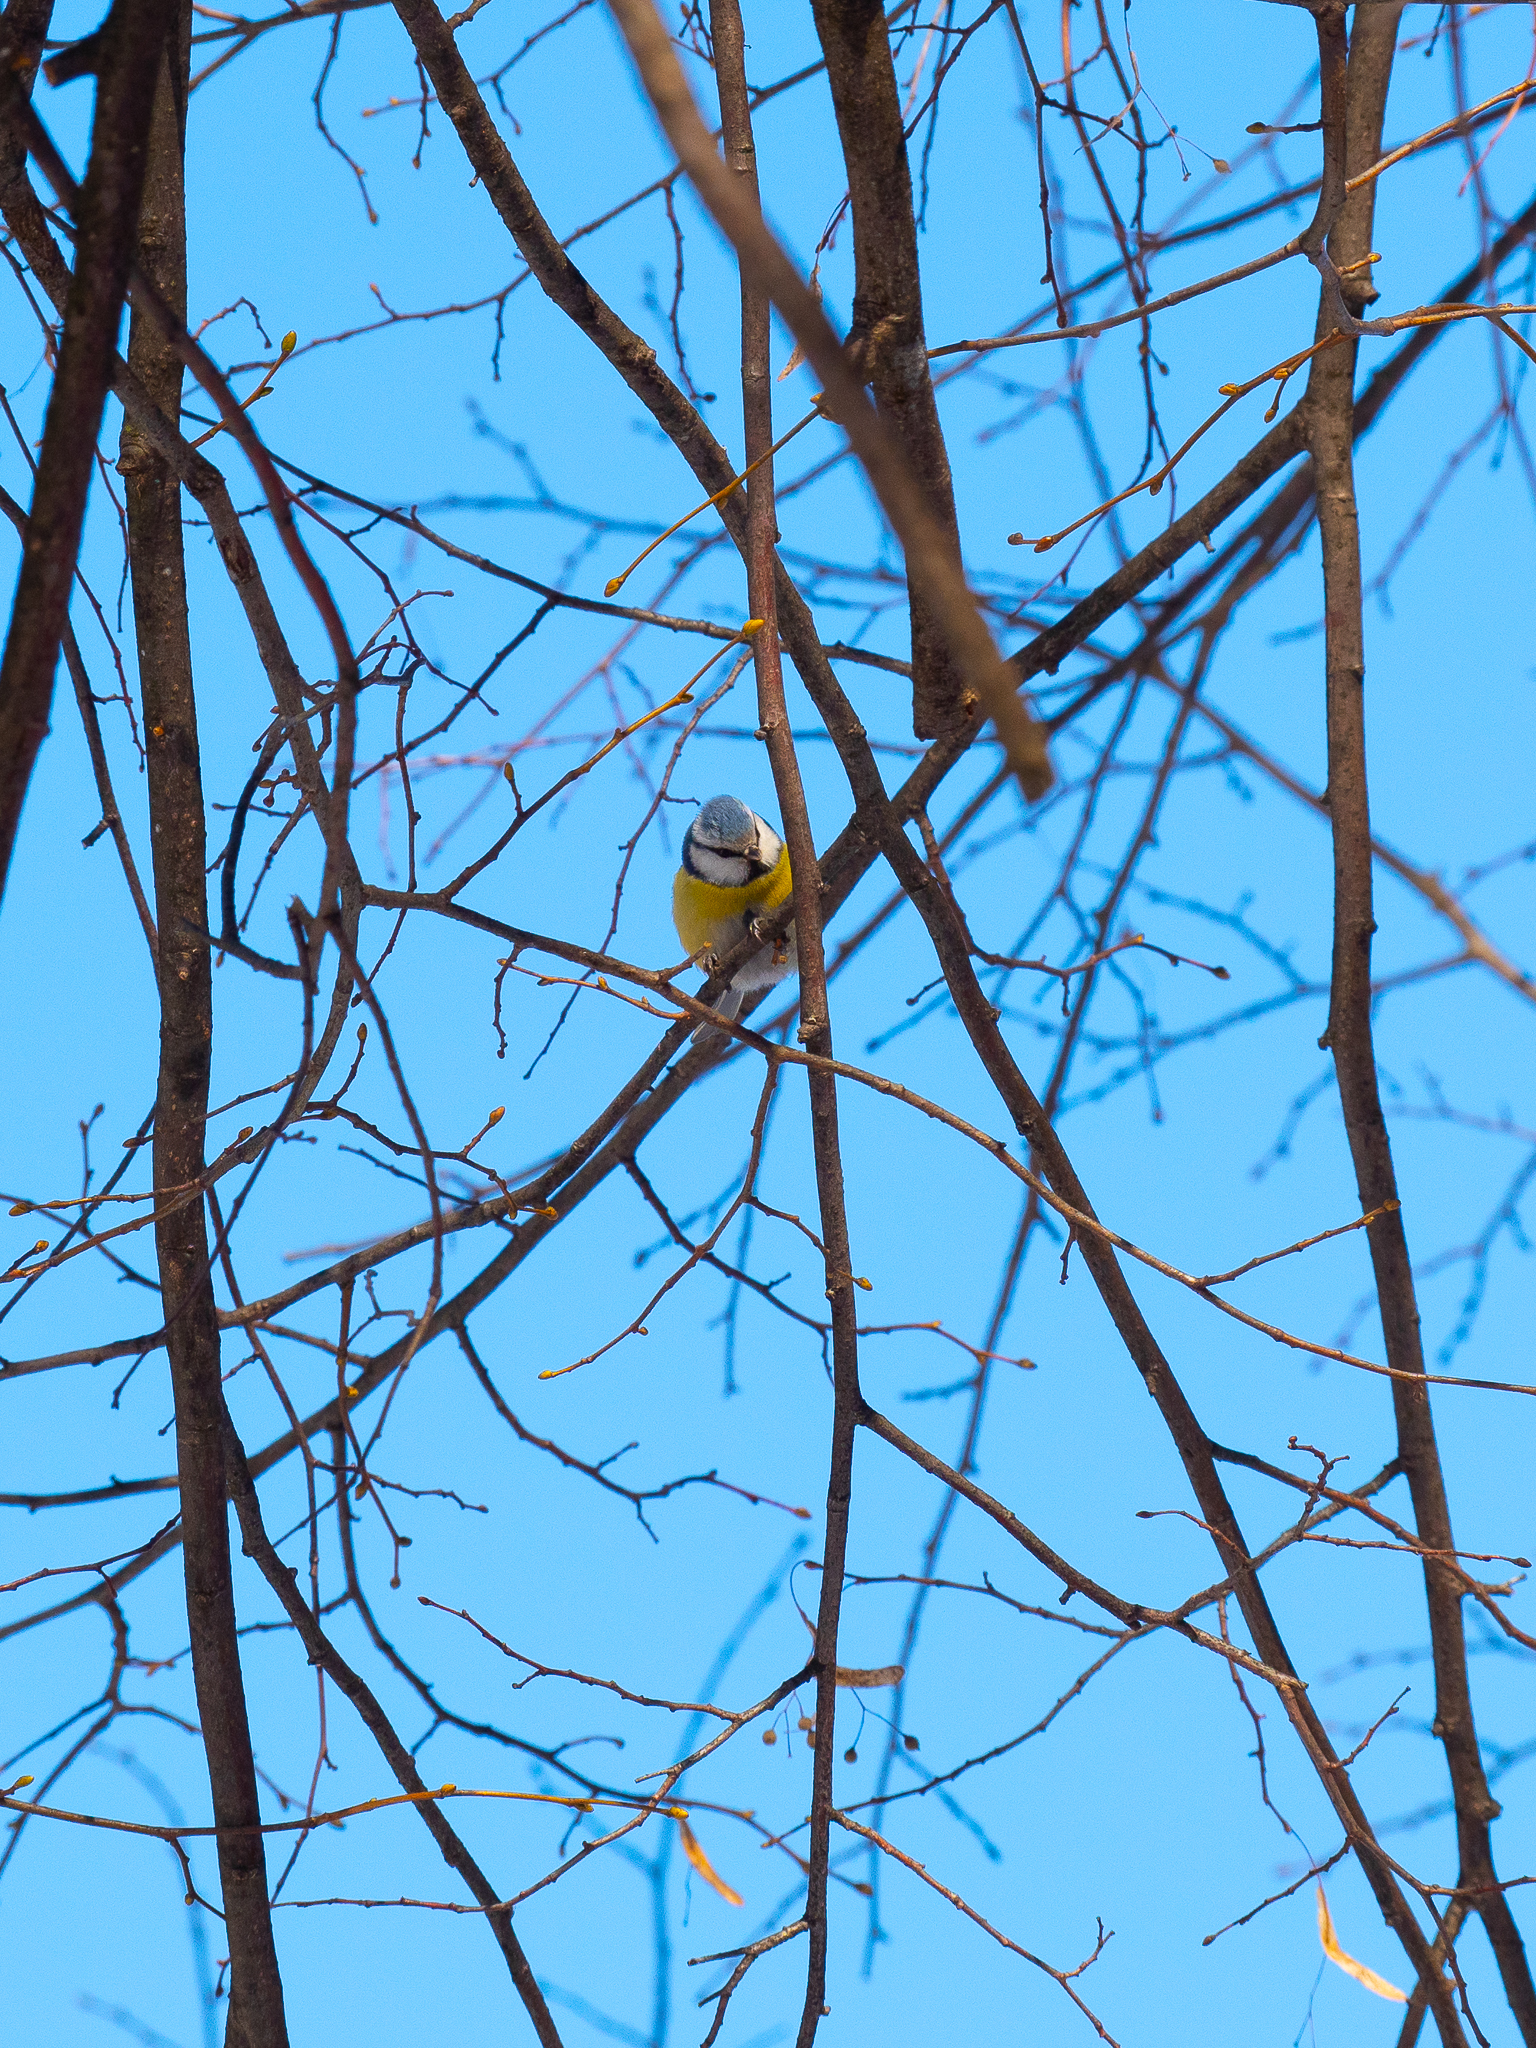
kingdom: Animalia
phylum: Chordata
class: Aves
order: Passeriformes
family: Paridae
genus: Cyanistes
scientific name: Cyanistes caeruleus
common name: Eurasian blue tit
